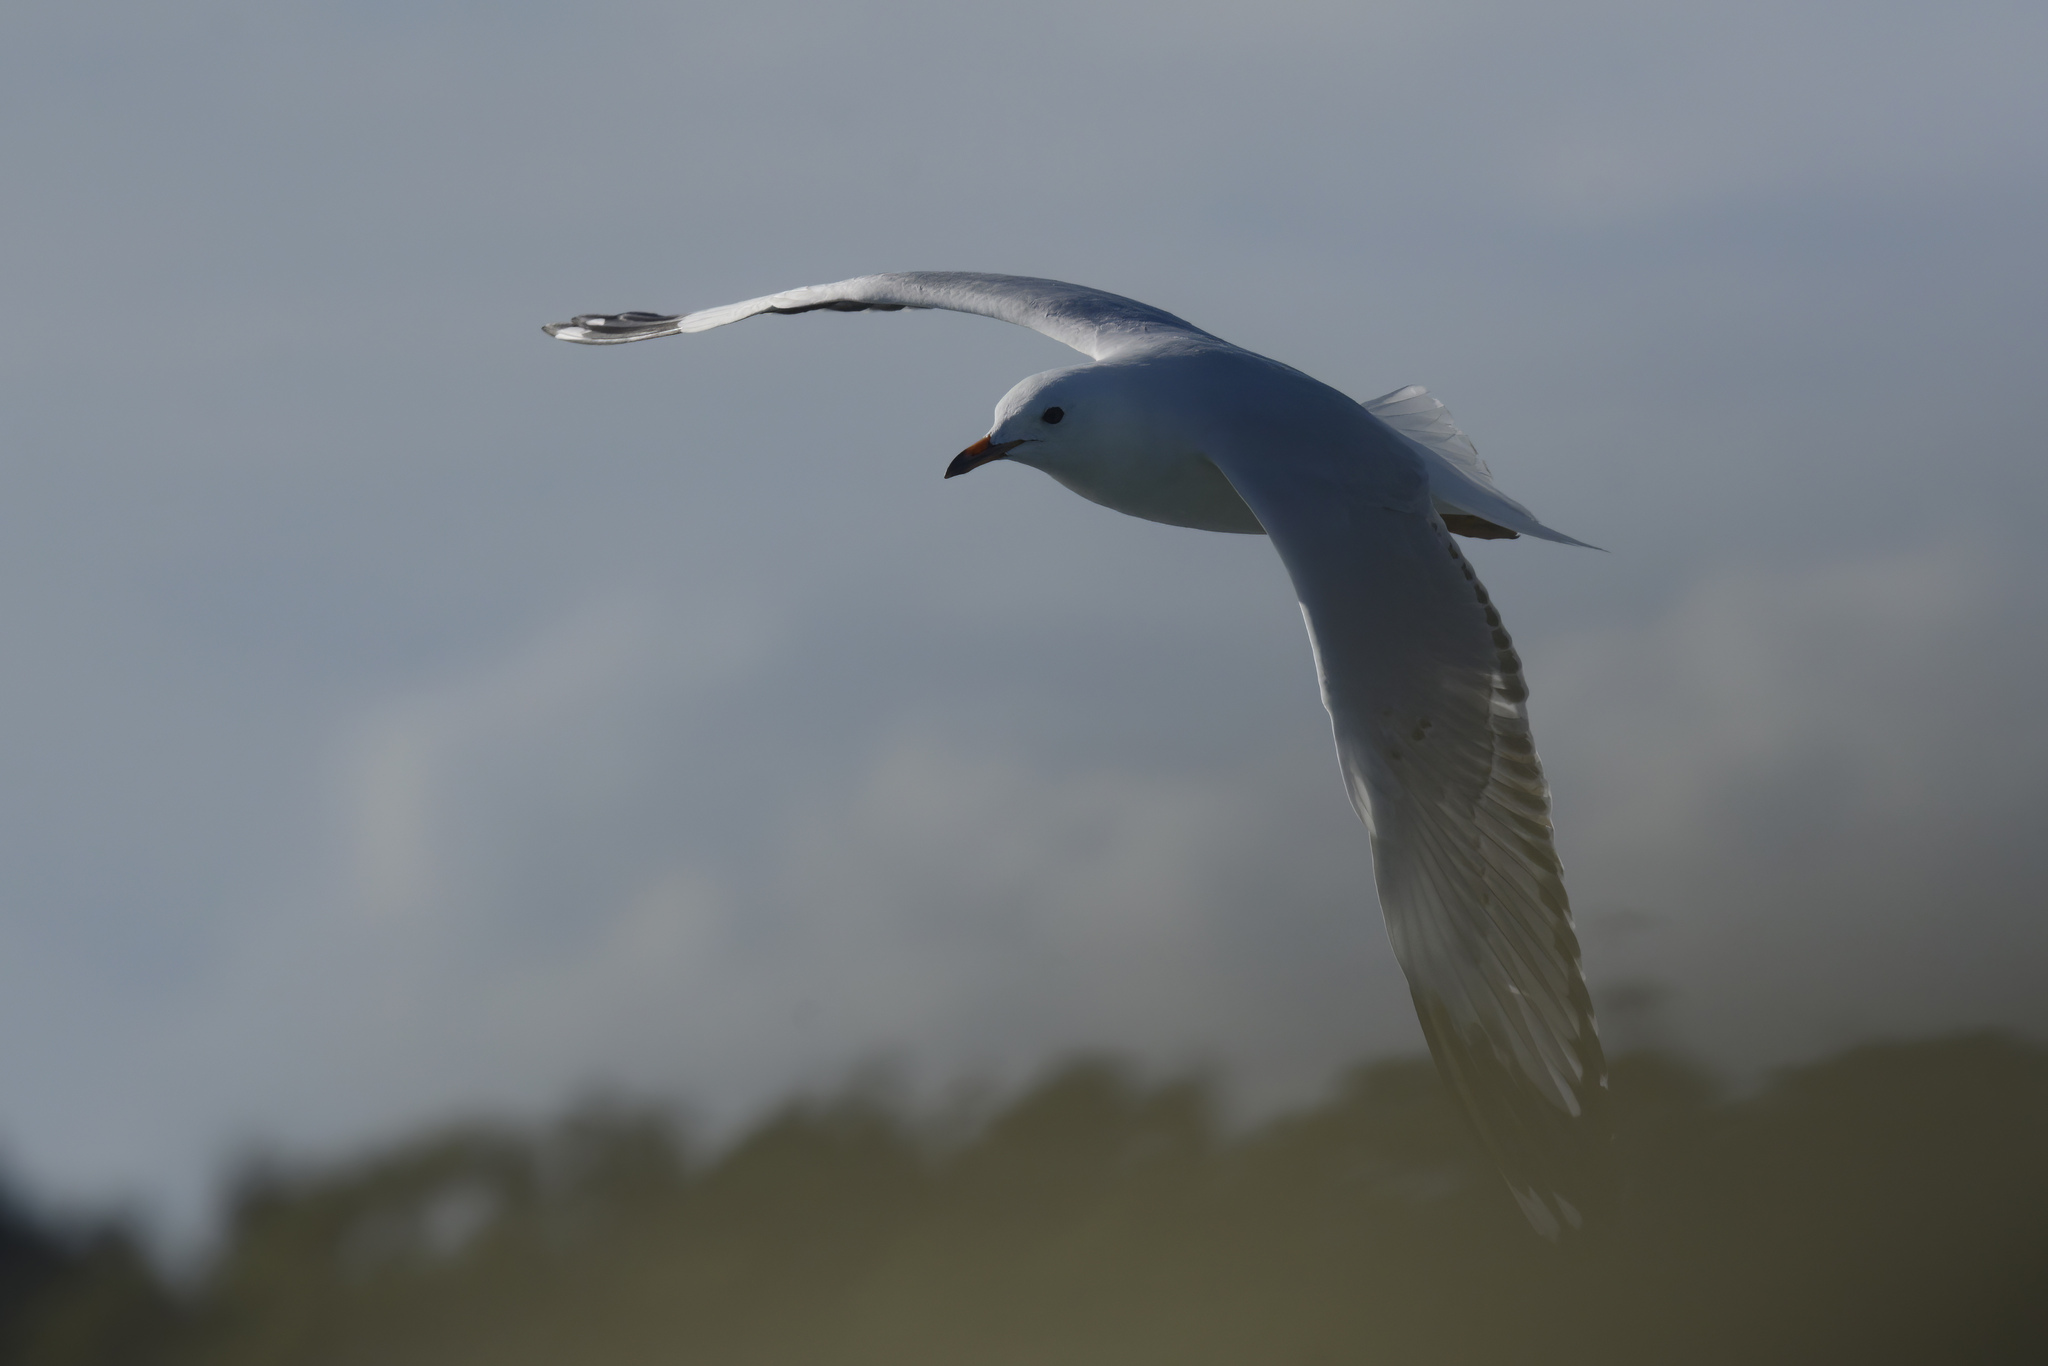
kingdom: Animalia
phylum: Chordata
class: Aves
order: Charadriiformes
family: Laridae
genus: Chroicocephalus
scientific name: Chroicocephalus novaehollandiae
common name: Silver gull
